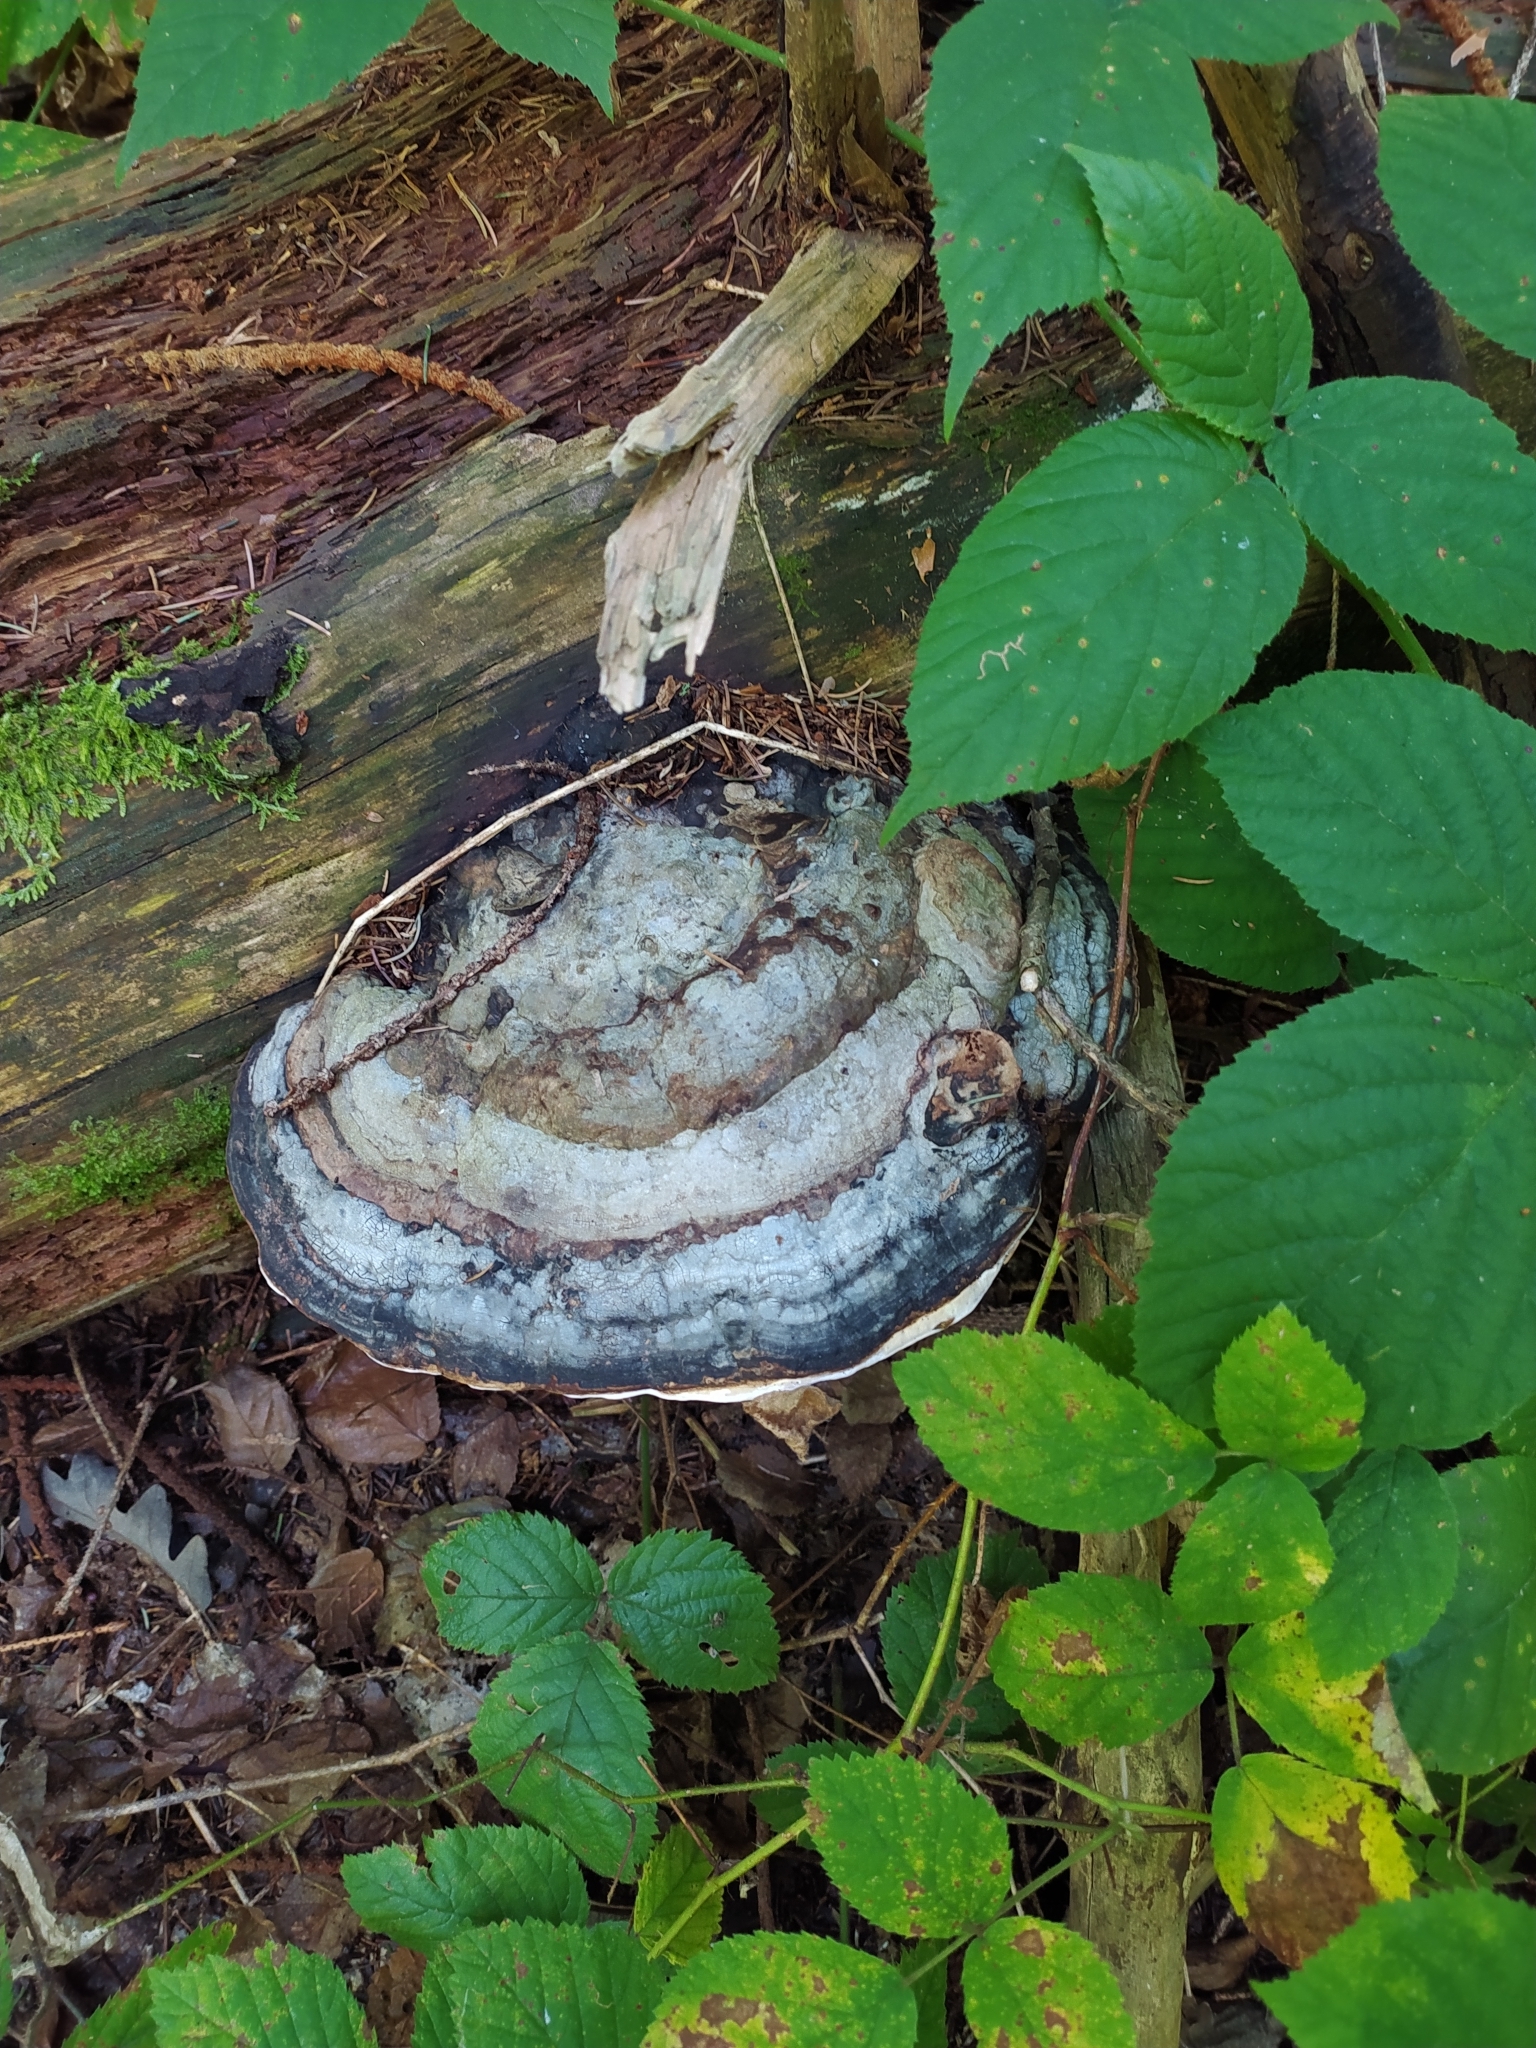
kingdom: Fungi
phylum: Basidiomycota
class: Agaricomycetes
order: Polyporales
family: Fomitopsidaceae
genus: Fomitopsis
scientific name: Fomitopsis pinicola
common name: Red-belted bracket
